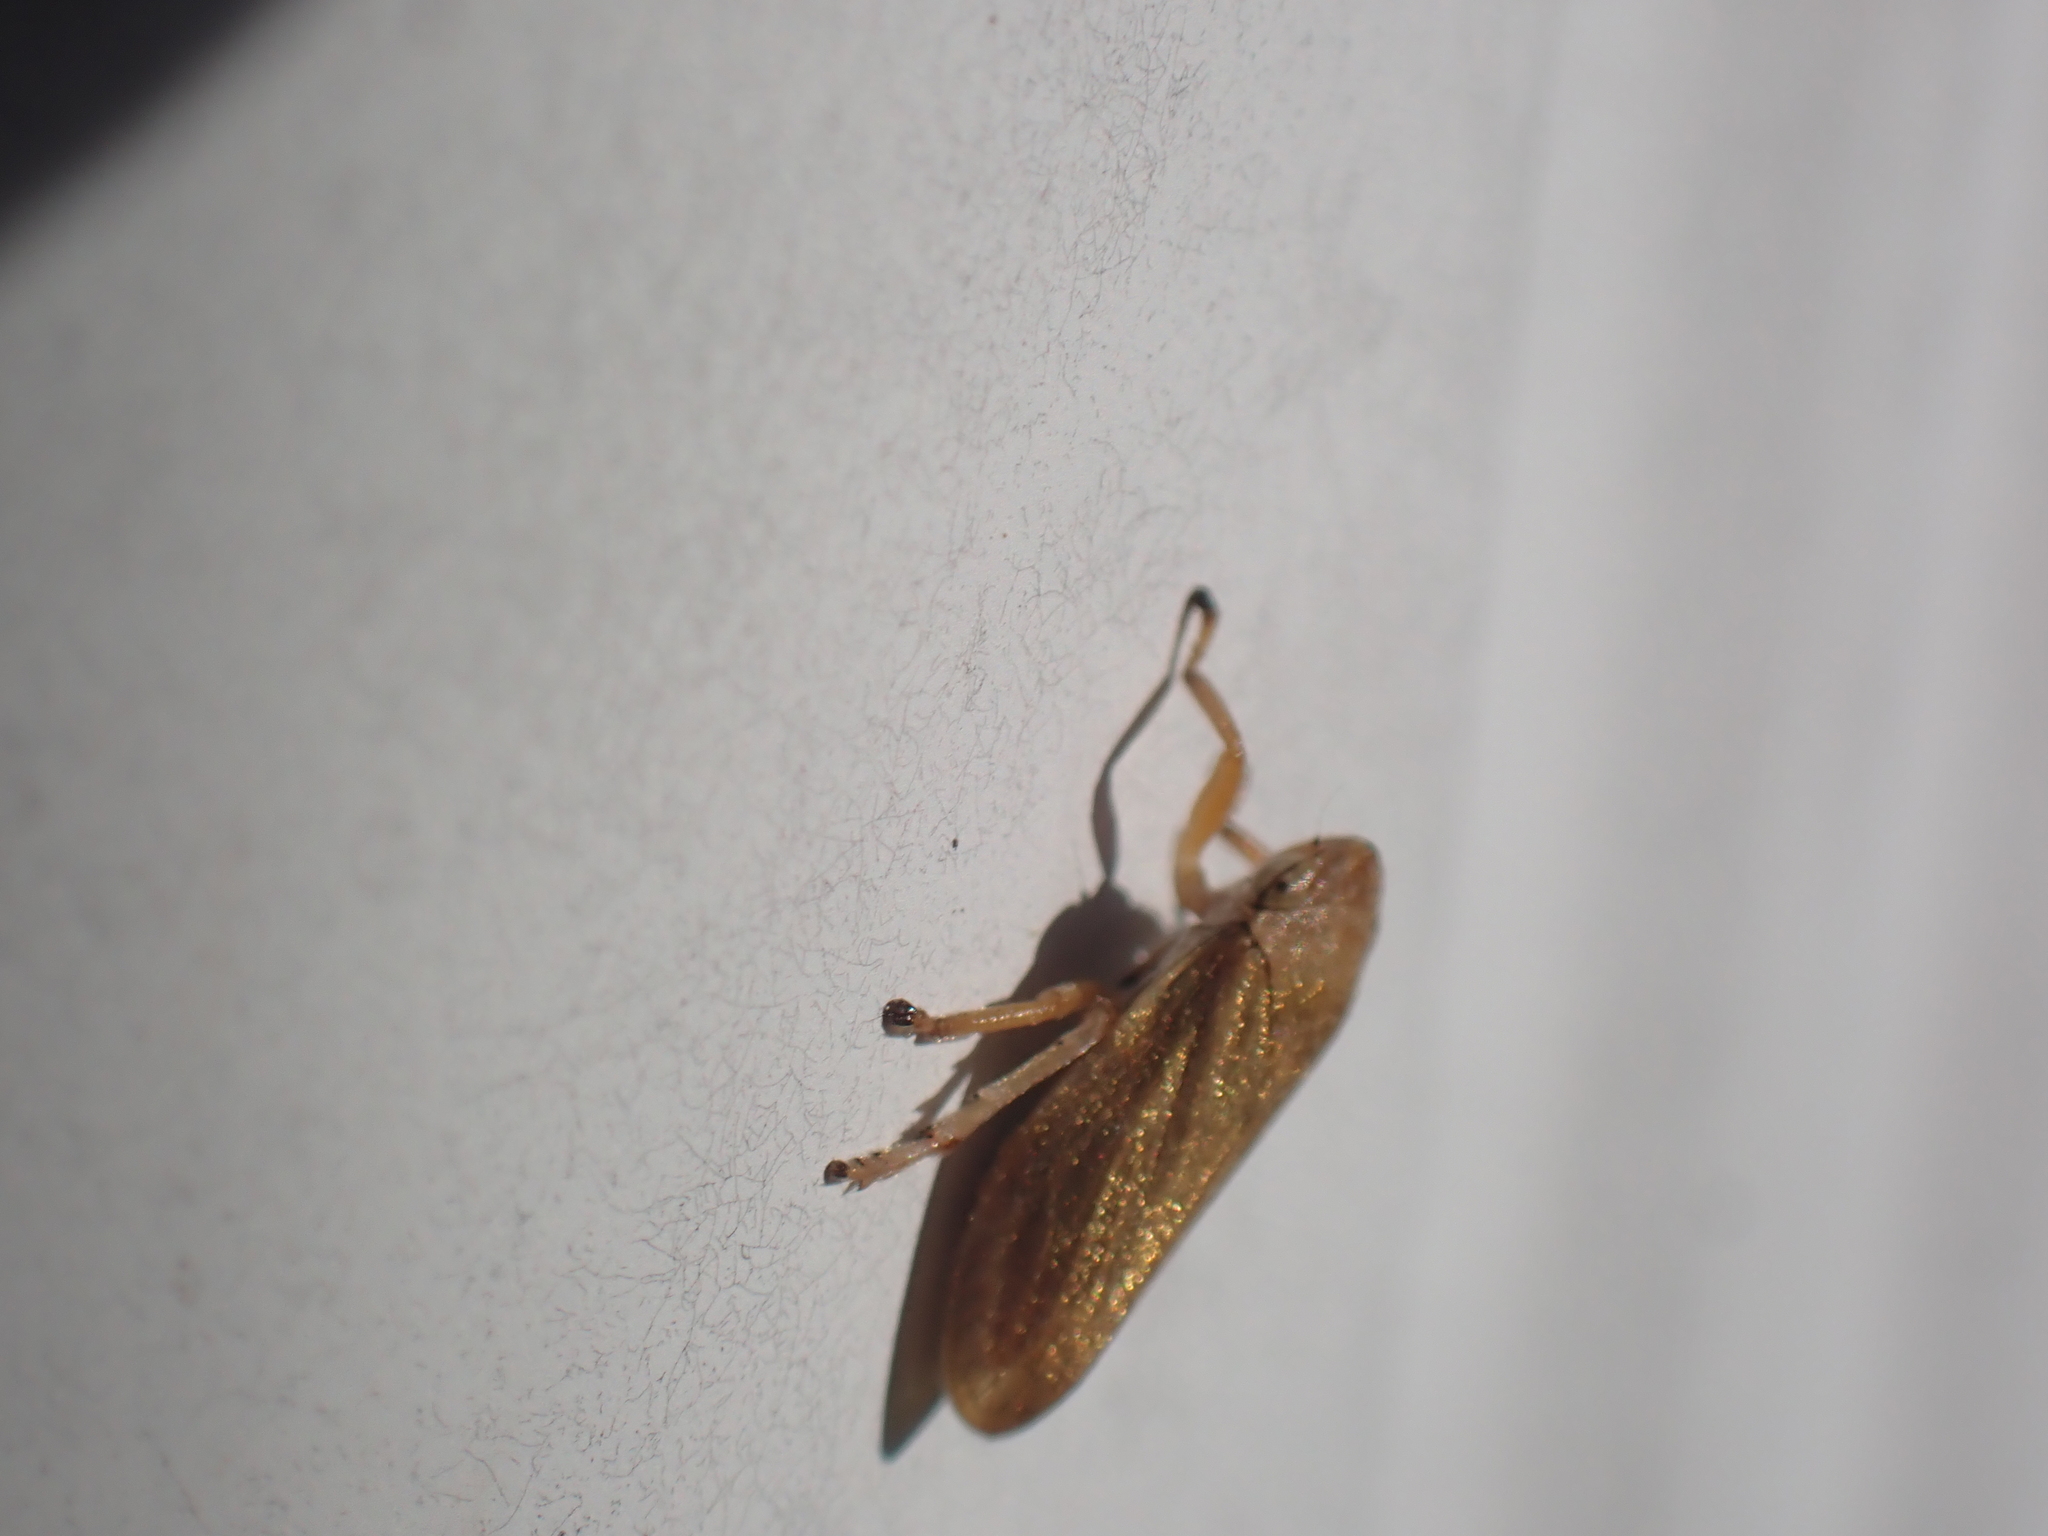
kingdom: Animalia
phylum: Arthropoda
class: Insecta
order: Hemiptera
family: Aphrophoridae
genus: Philaenus
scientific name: Philaenus spumarius
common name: Meadow spittlebug
